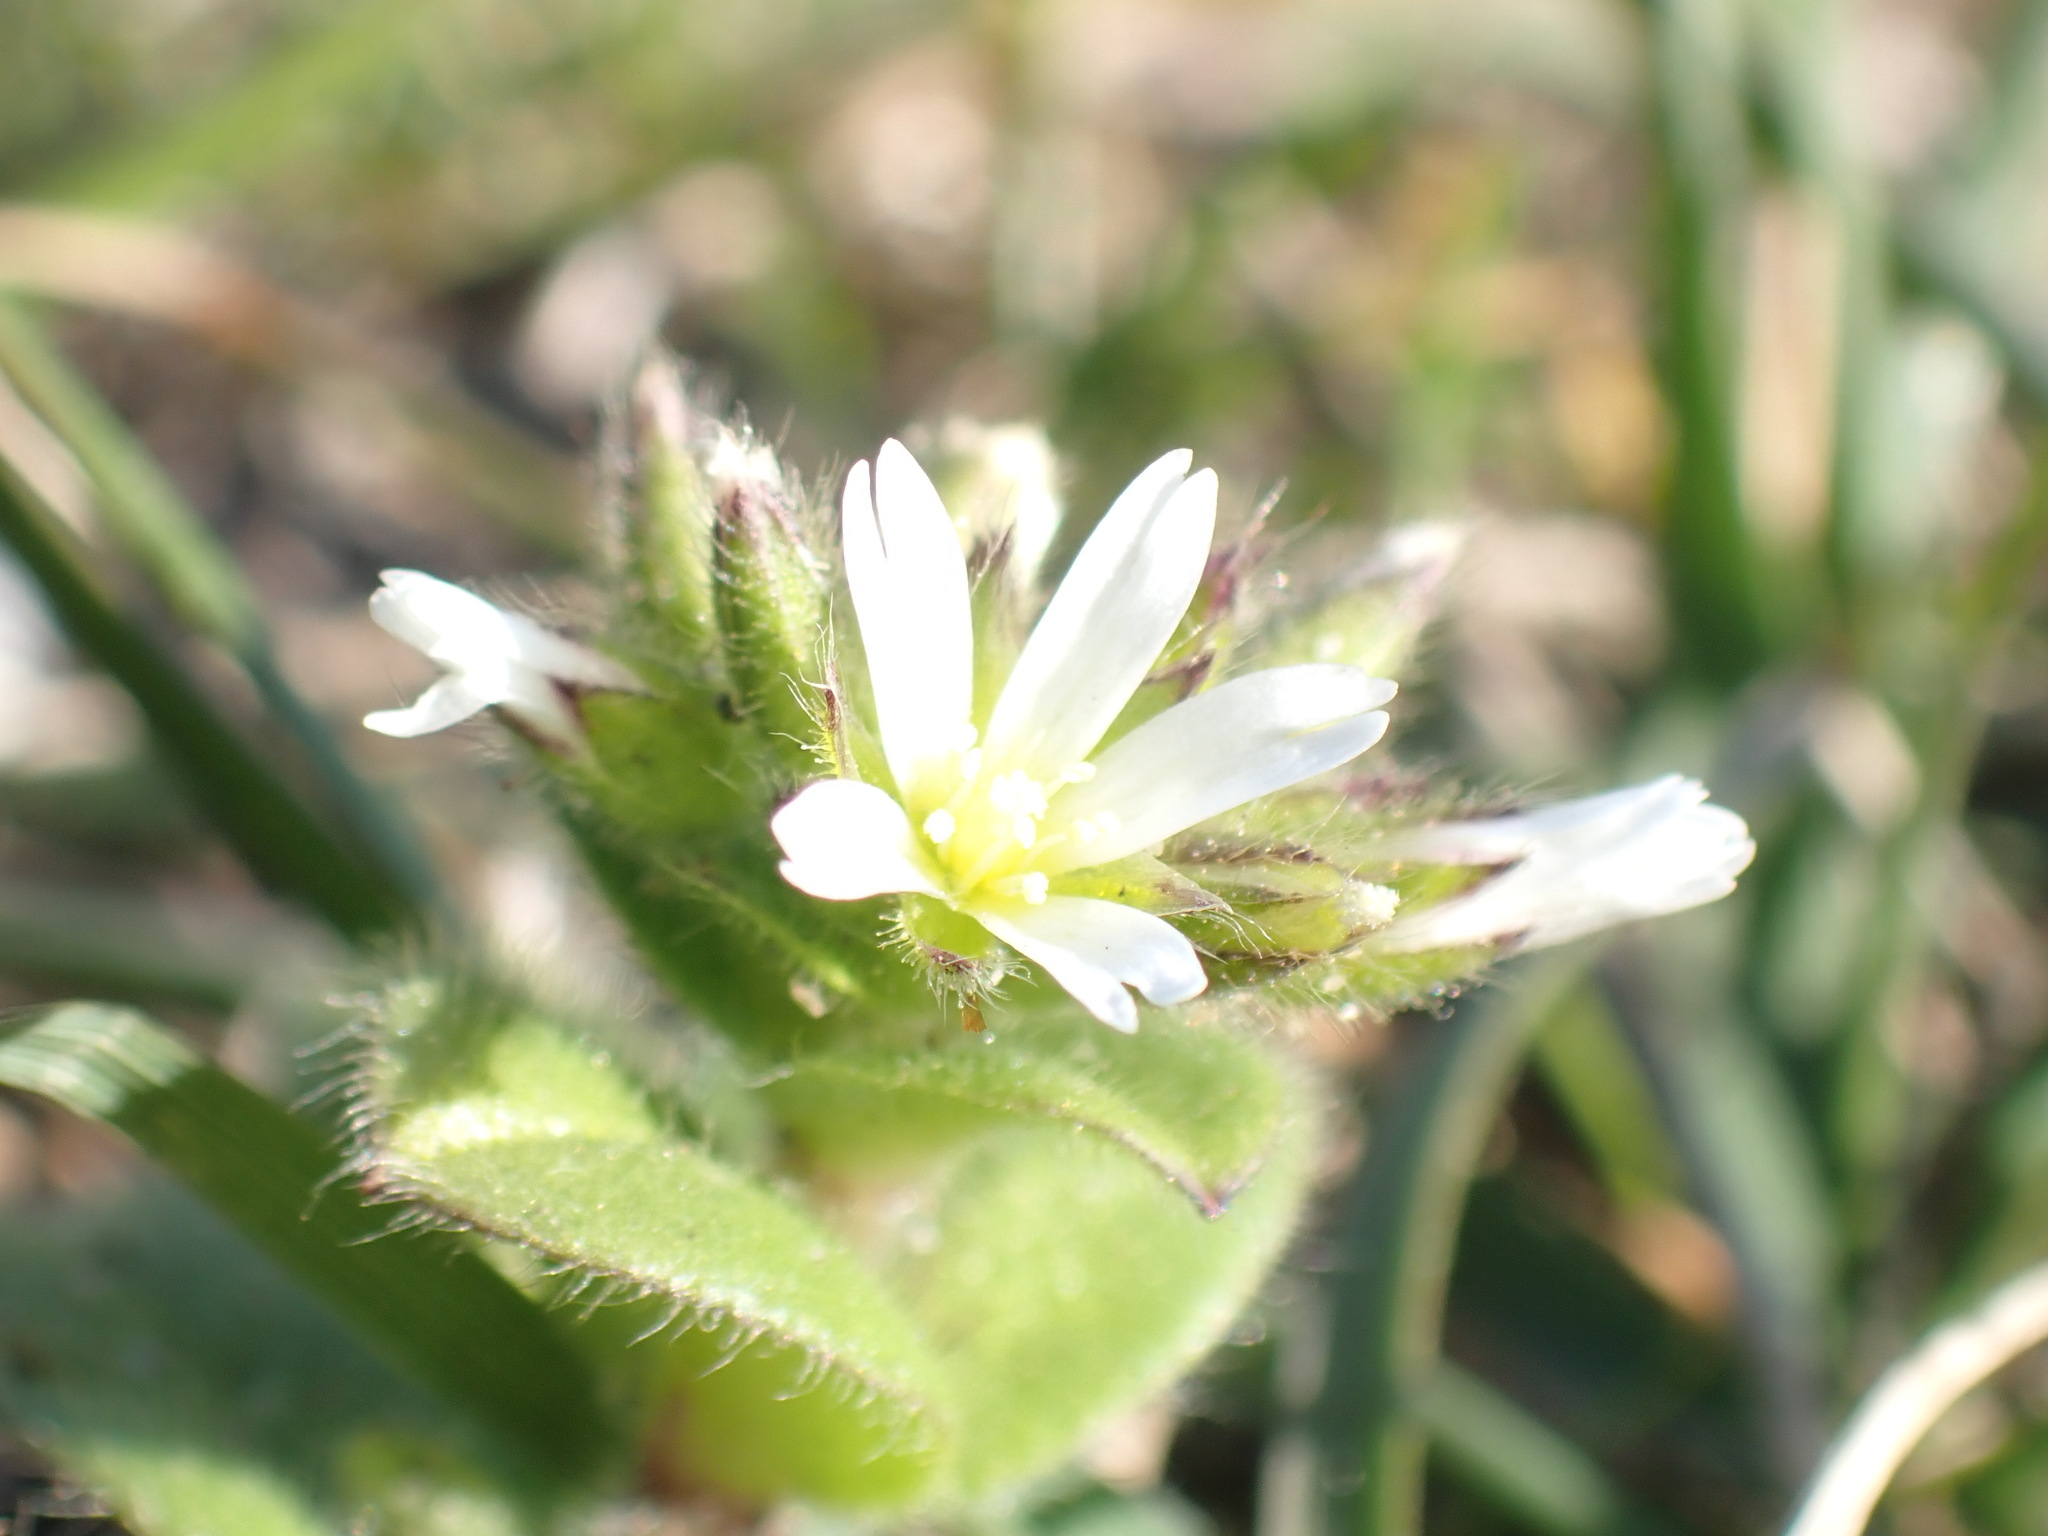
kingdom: Plantae
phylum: Tracheophyta
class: Magnoliopsida
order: Caryophyllales
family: Caryophyllaceae
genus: Cerastium
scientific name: Cerastium glomeratum
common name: Sticky chickweed
